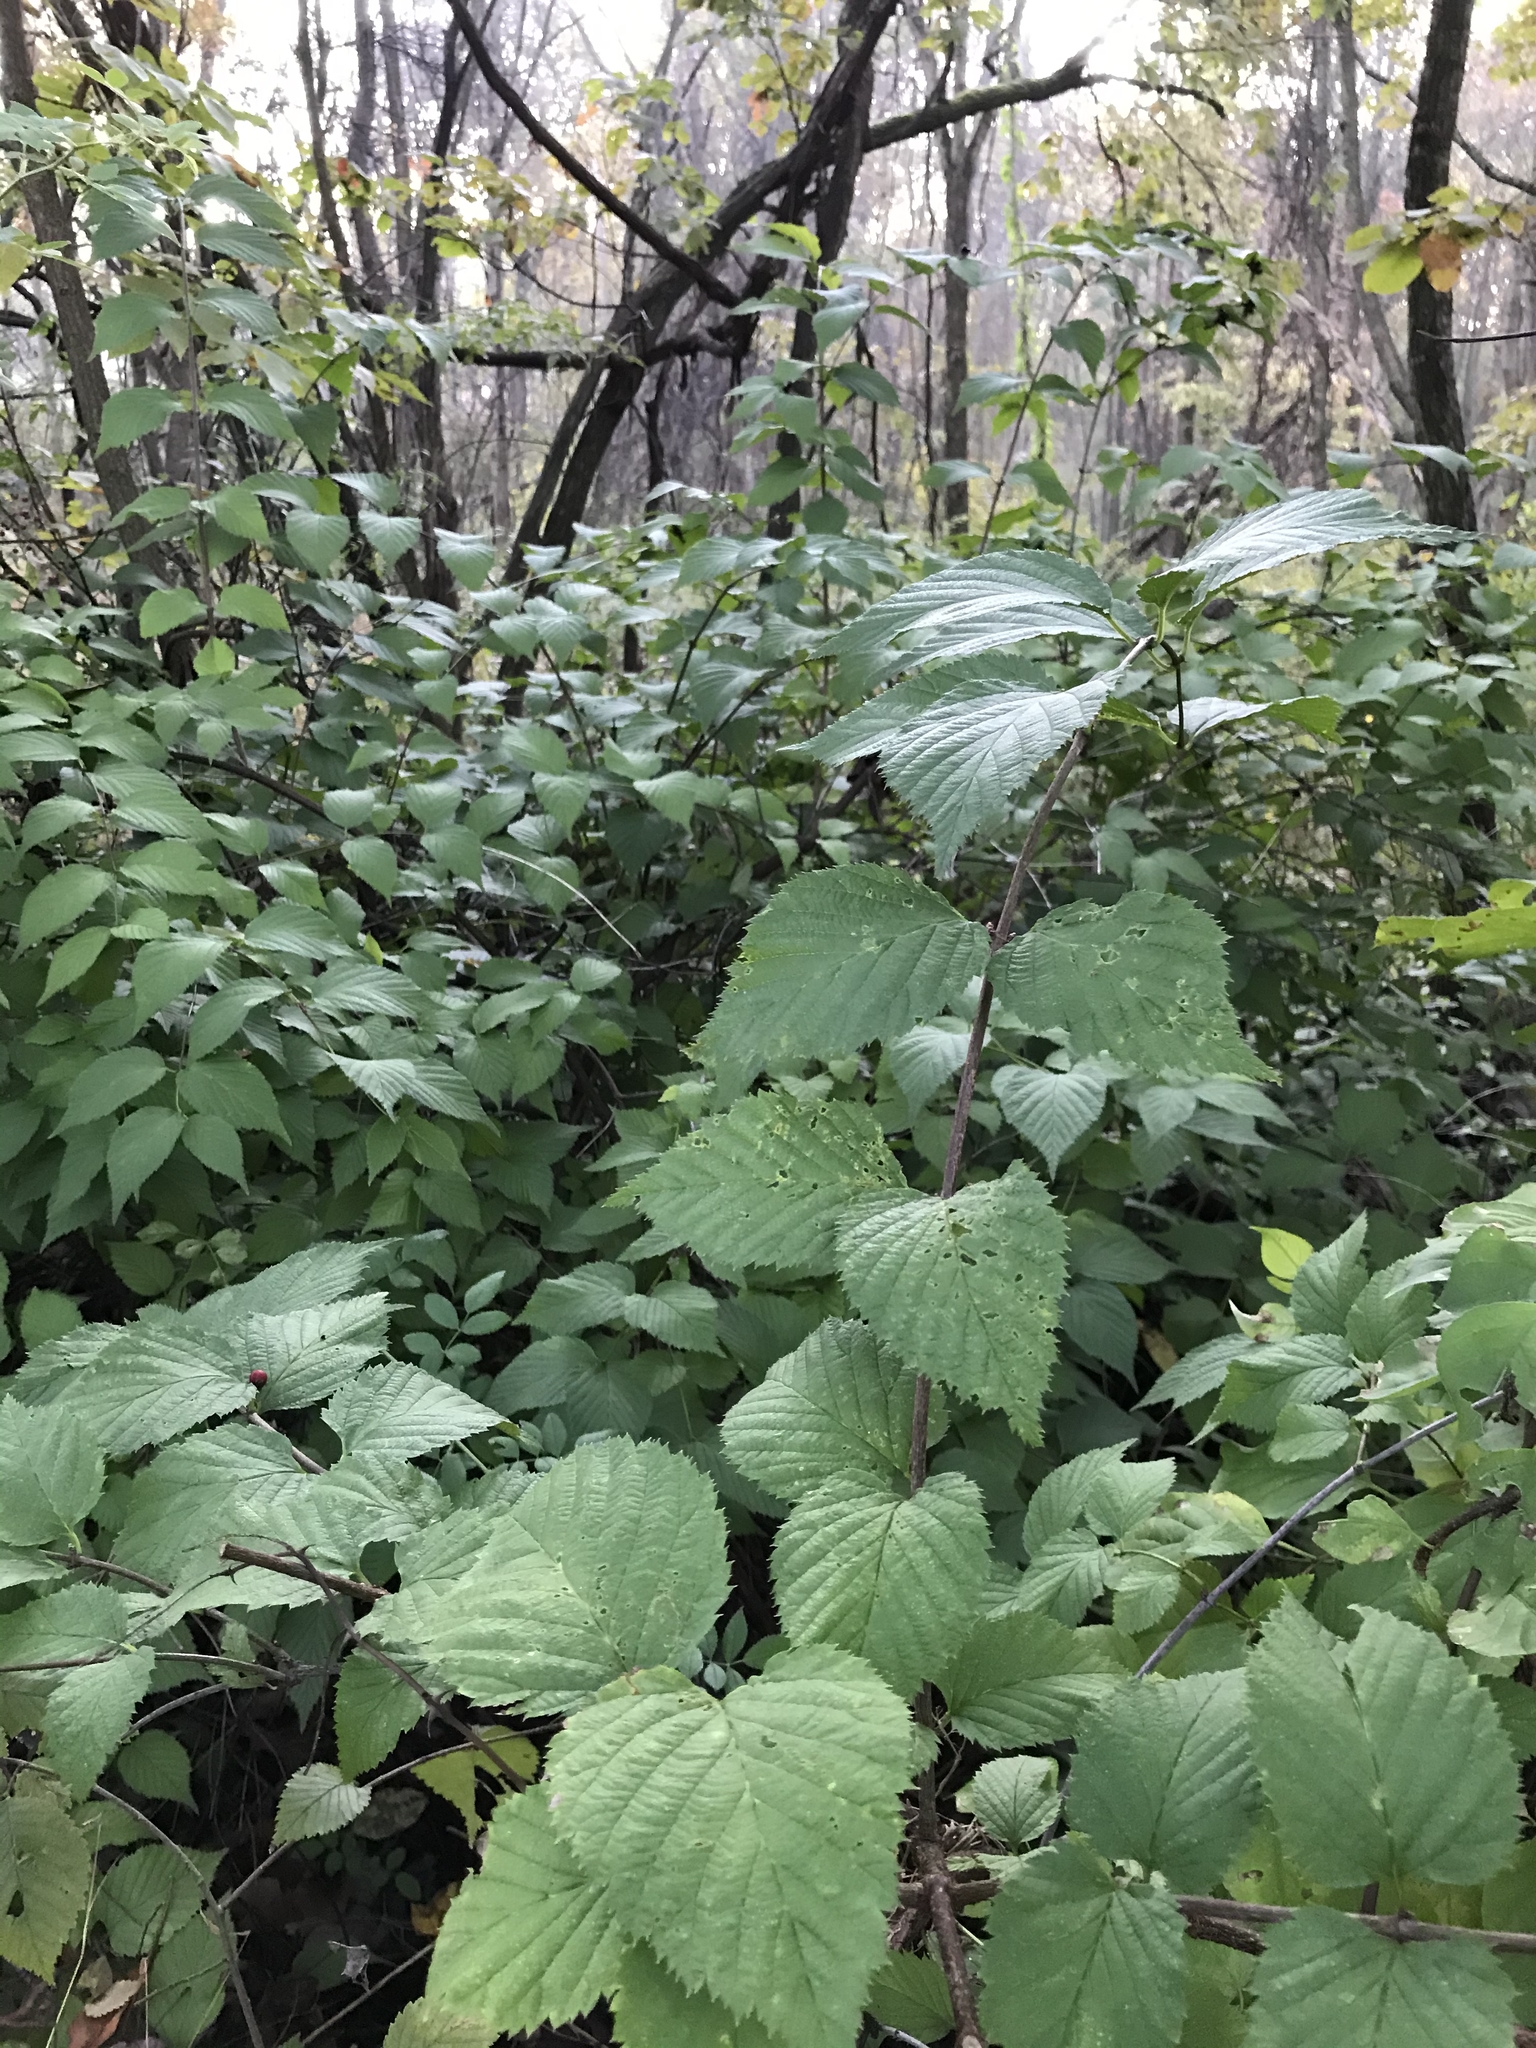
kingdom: Plantae
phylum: Tracheophyta
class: Magnoliopsida
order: Rosales
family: Rosaceae
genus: Rhodotypos
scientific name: Rhodotypos scandens
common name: Jetbead
